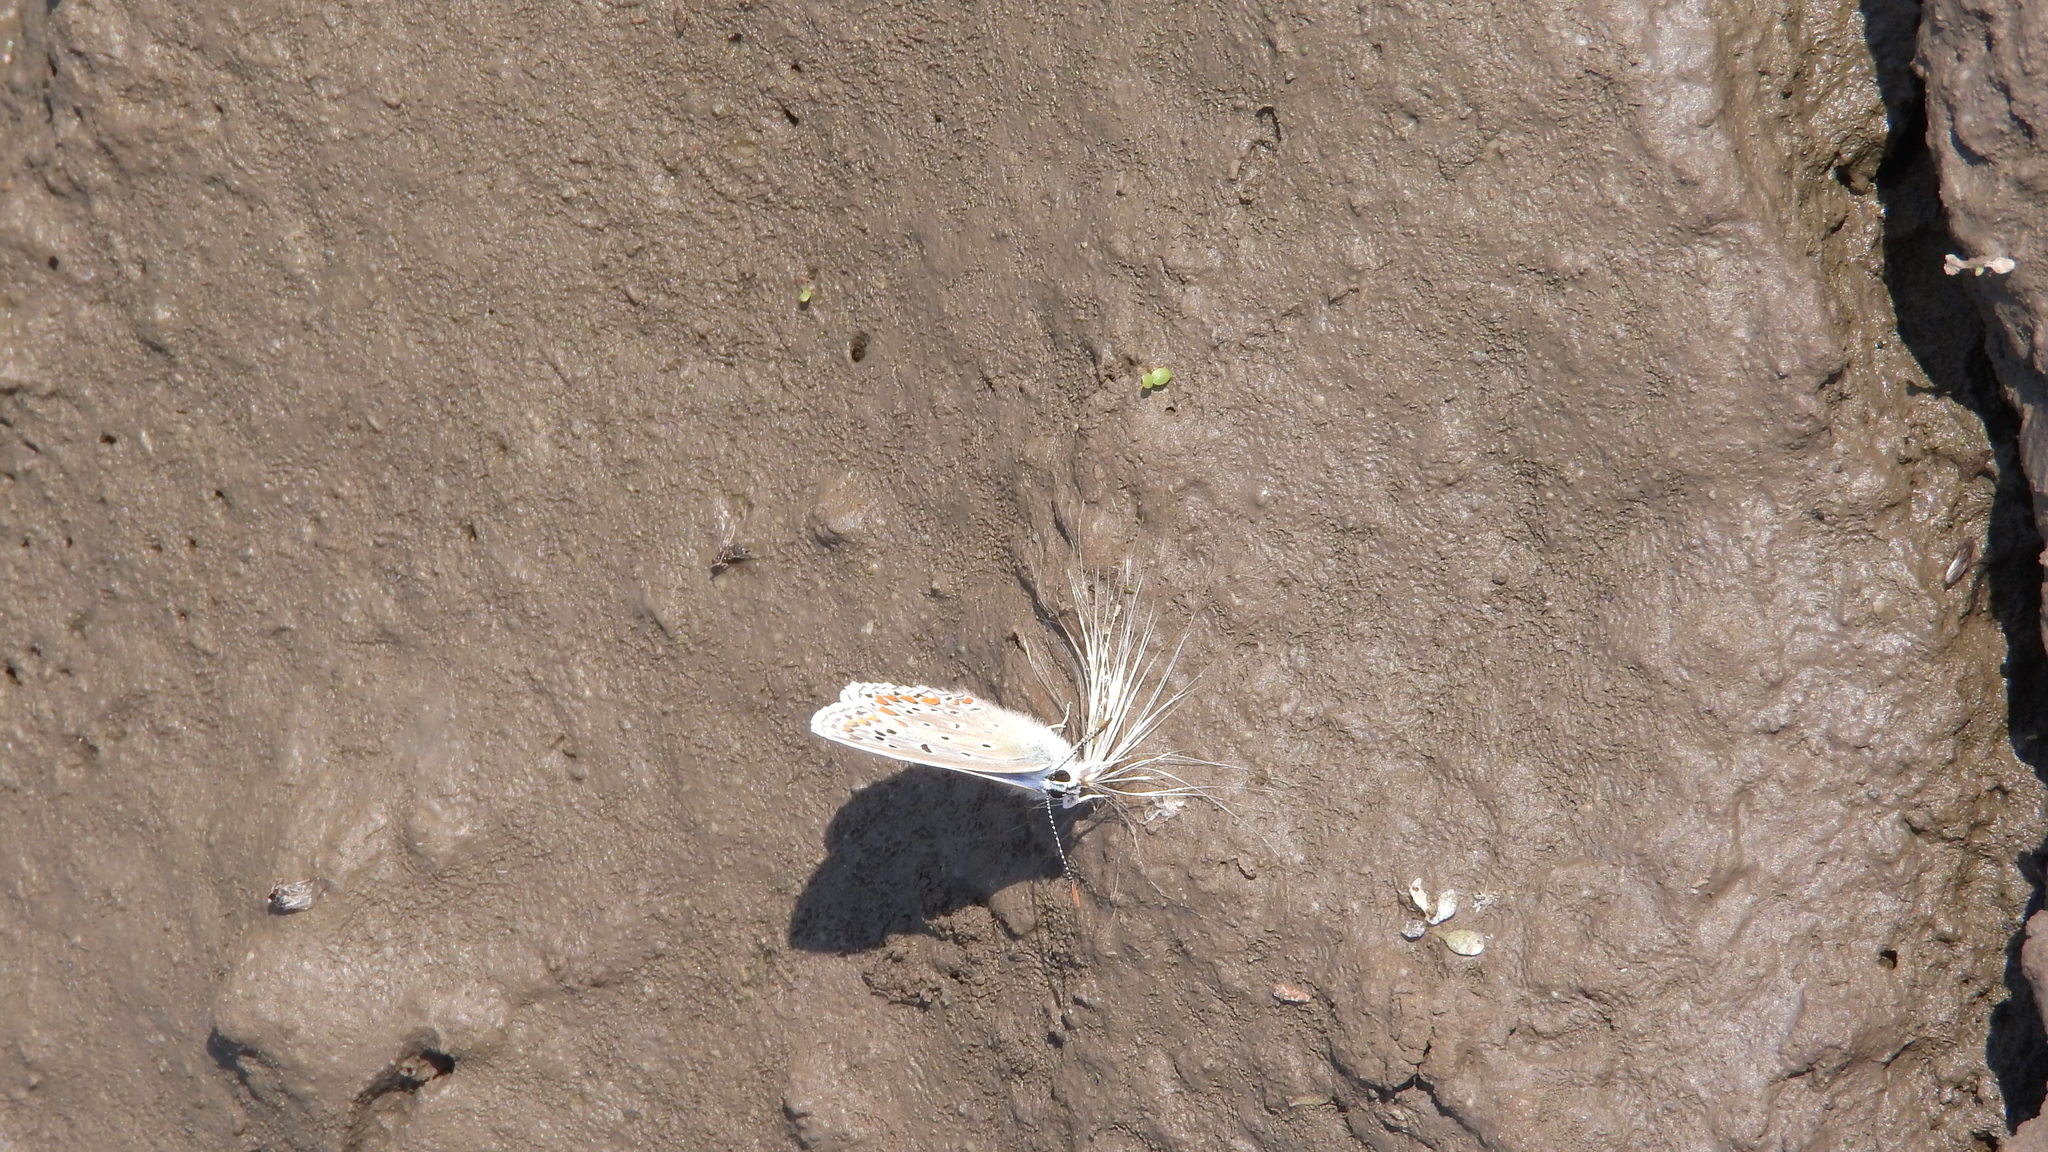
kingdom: Animalia
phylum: Arthropoda
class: Insecta
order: Lepidoptera
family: Lycaenidae
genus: Polyommatus
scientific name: Polyommatus icarus
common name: Common blue
